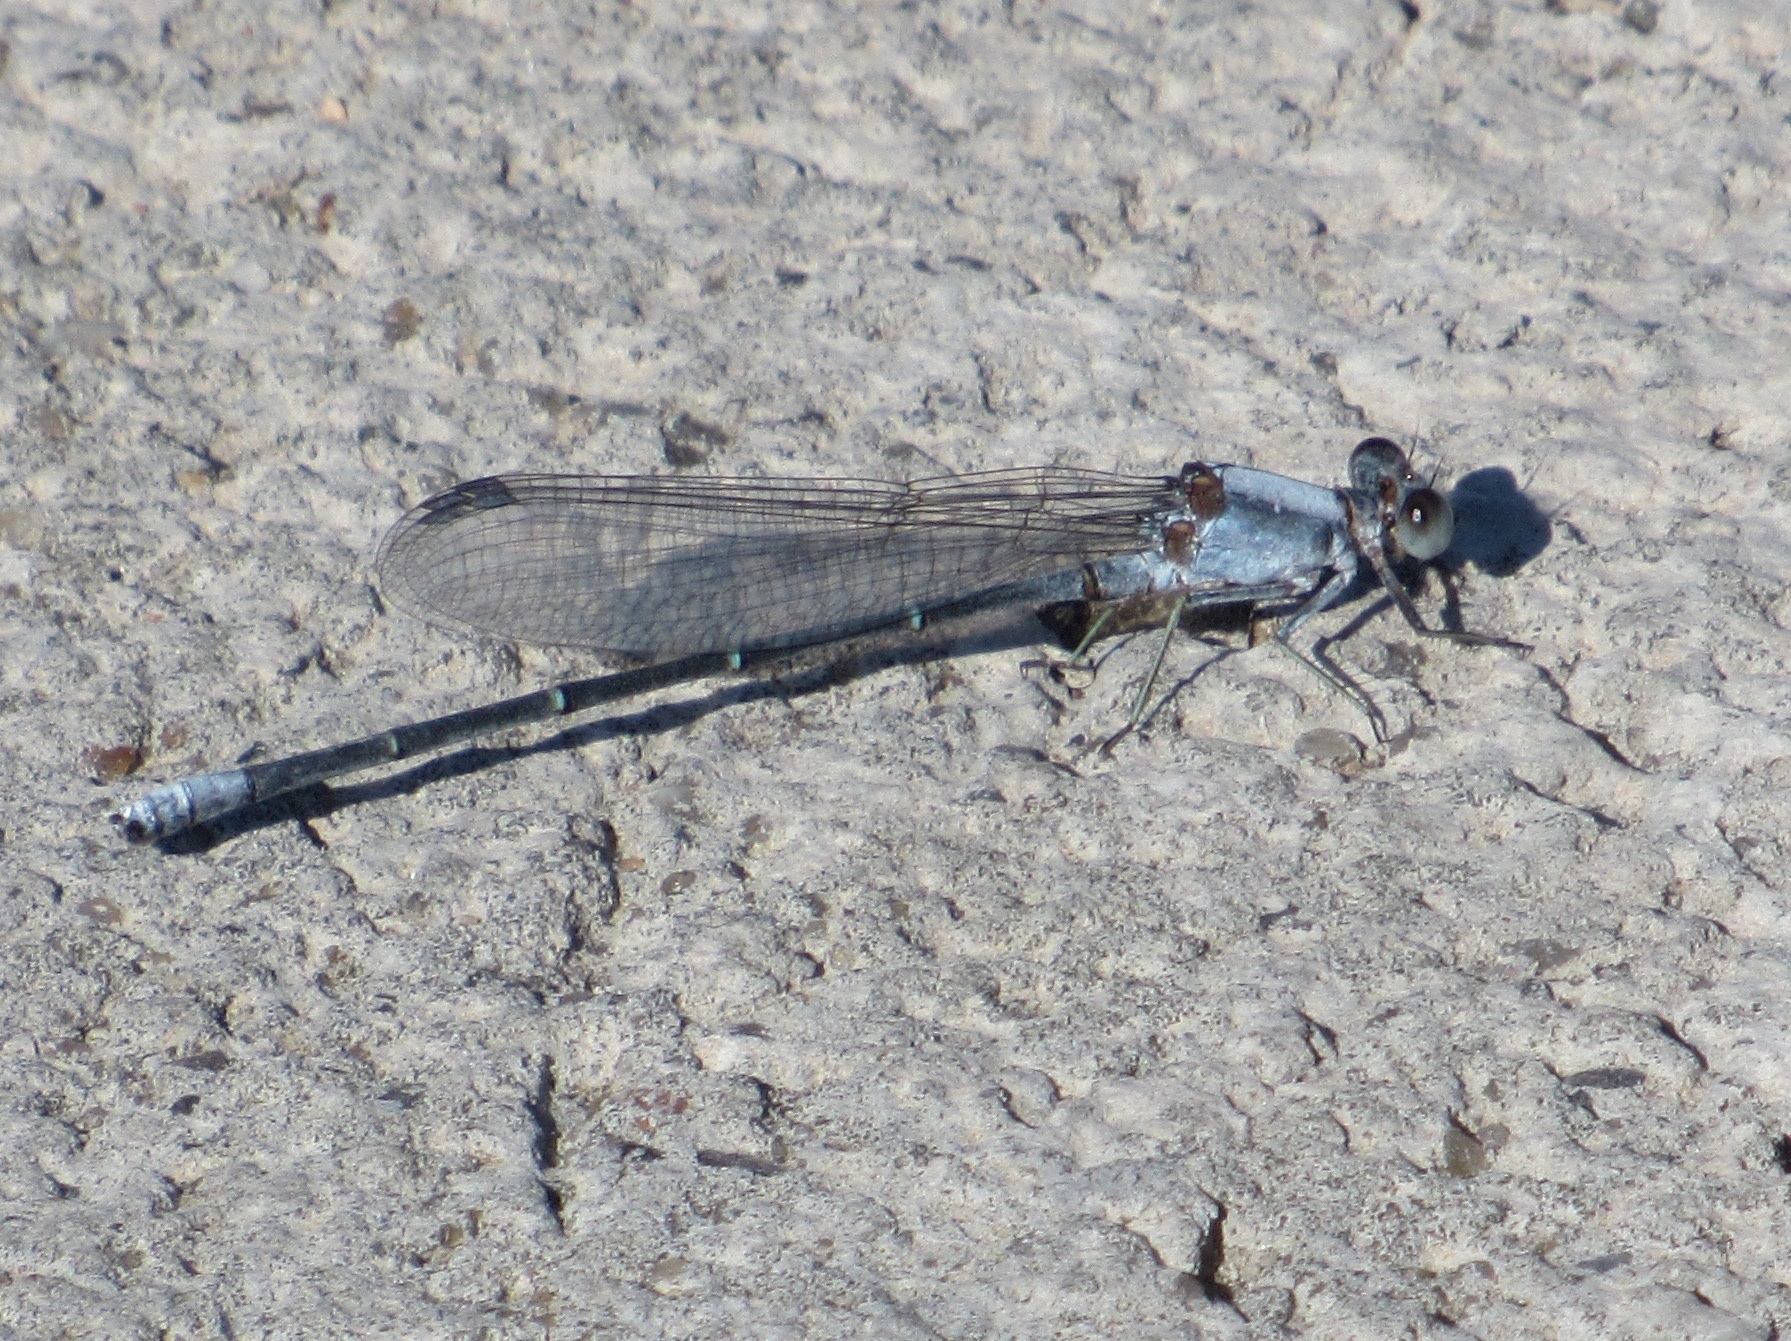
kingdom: Animalia
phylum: Arthropoda
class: Insecta
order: Odonata
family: Coenagrionidae
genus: Argia
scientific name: Argia moesta
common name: Powdered dancer
